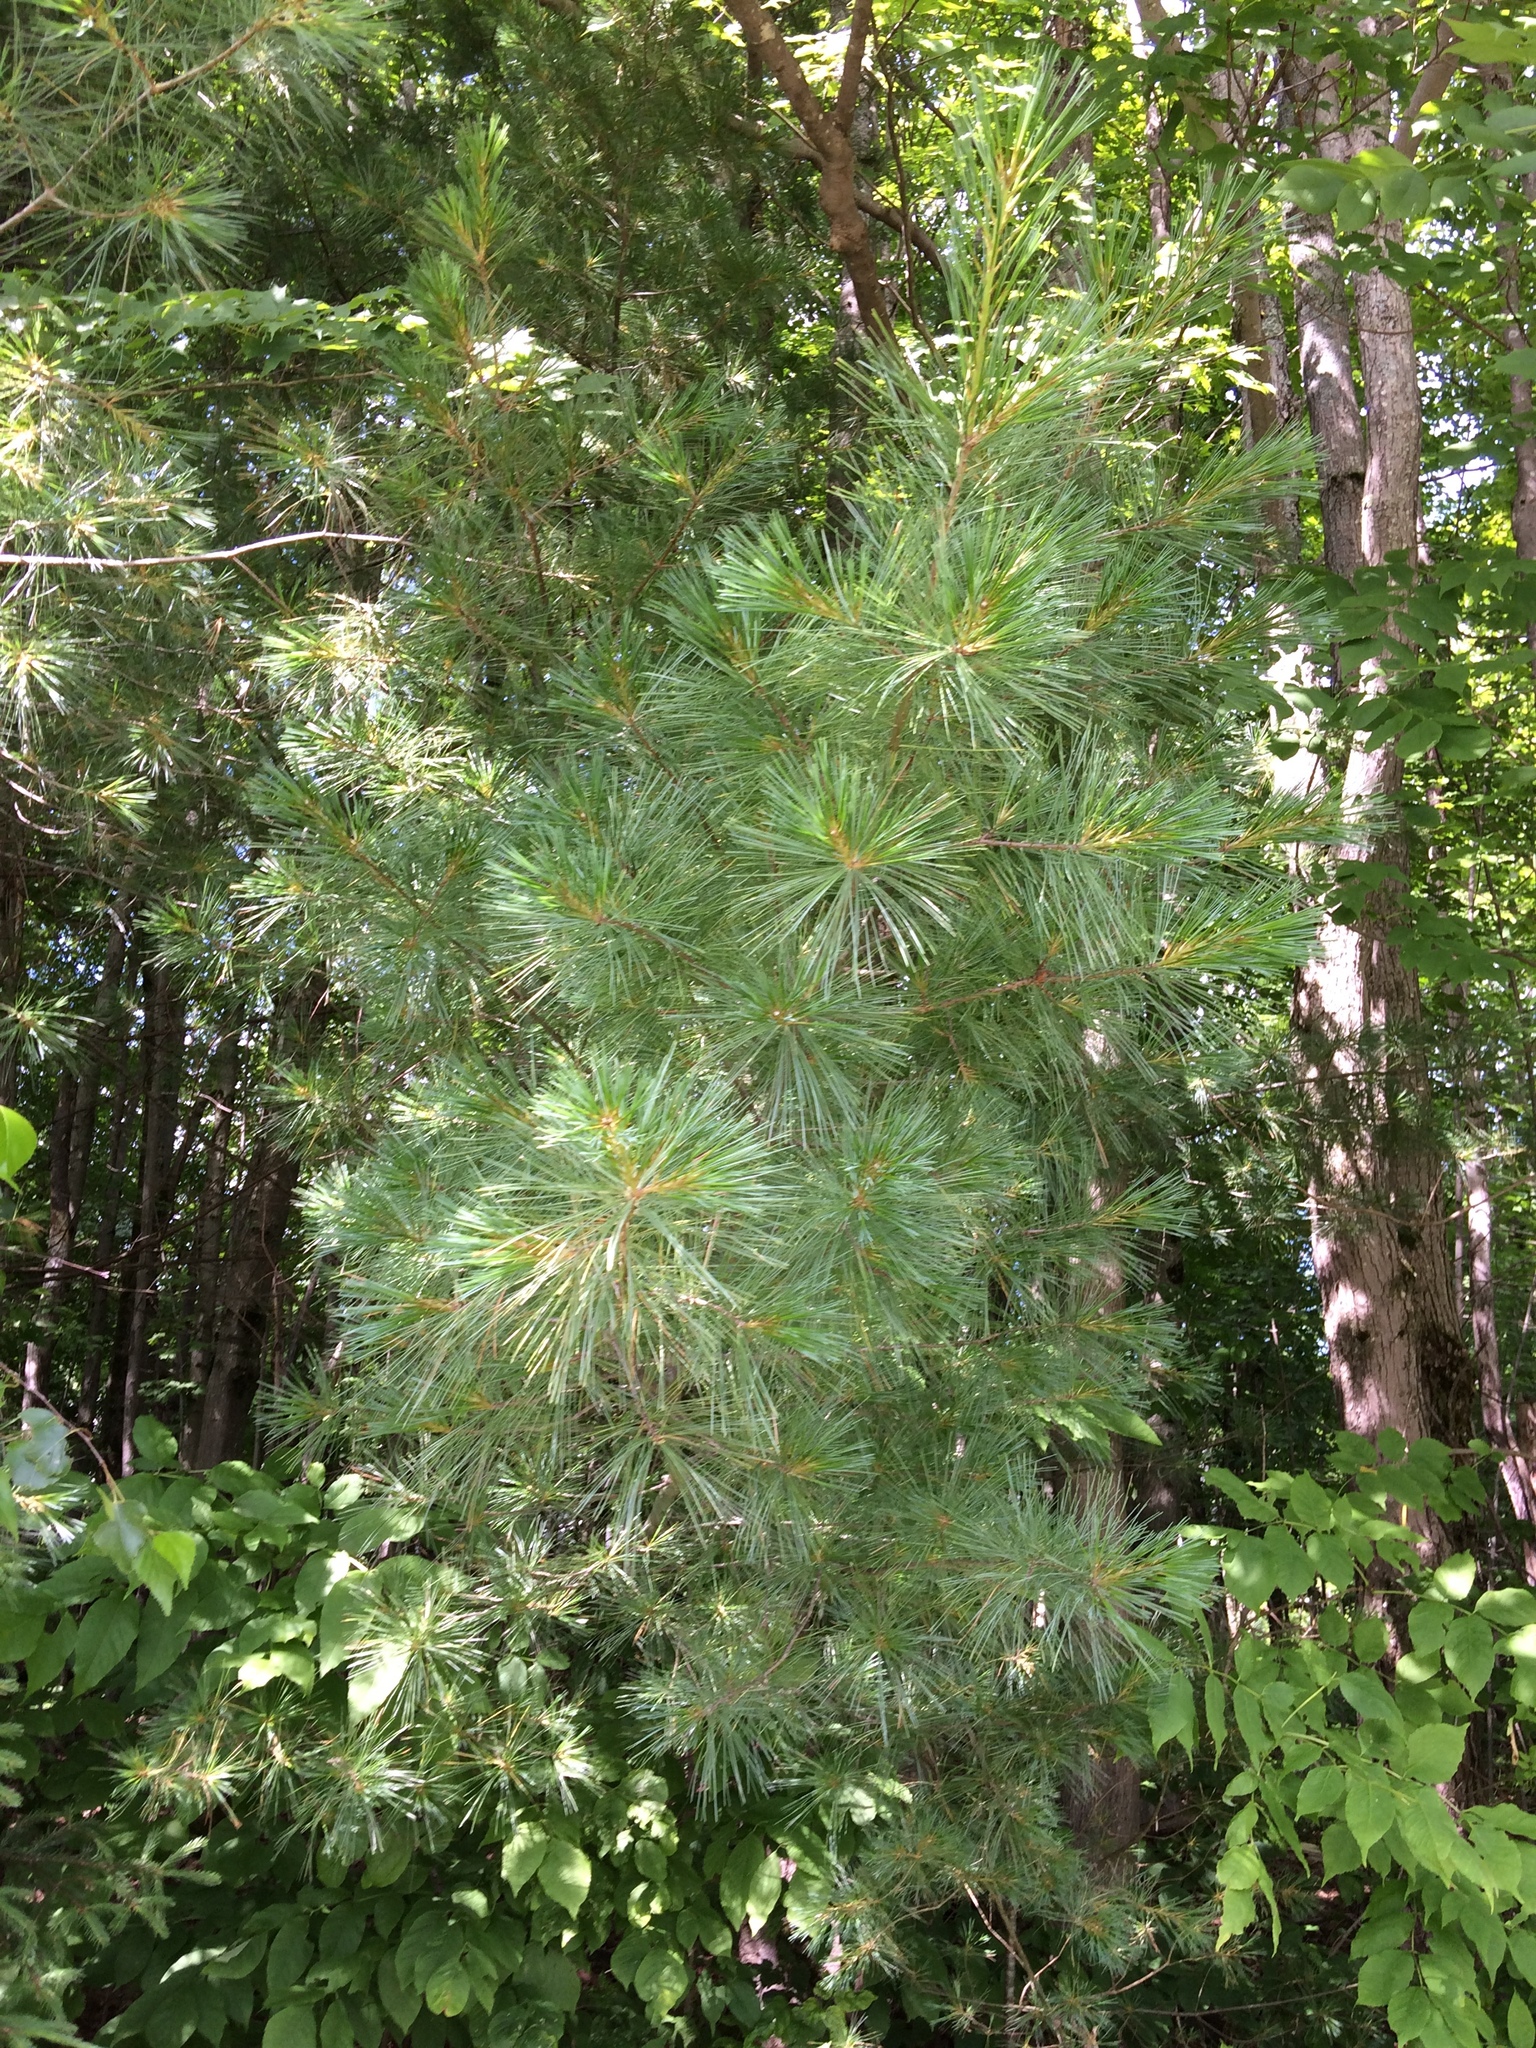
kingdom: Plantae
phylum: Tracheophyta
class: Pinopsida
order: Pinales
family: Pinaceae
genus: Pinus
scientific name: Pinus strobus
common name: Weymouth pine
